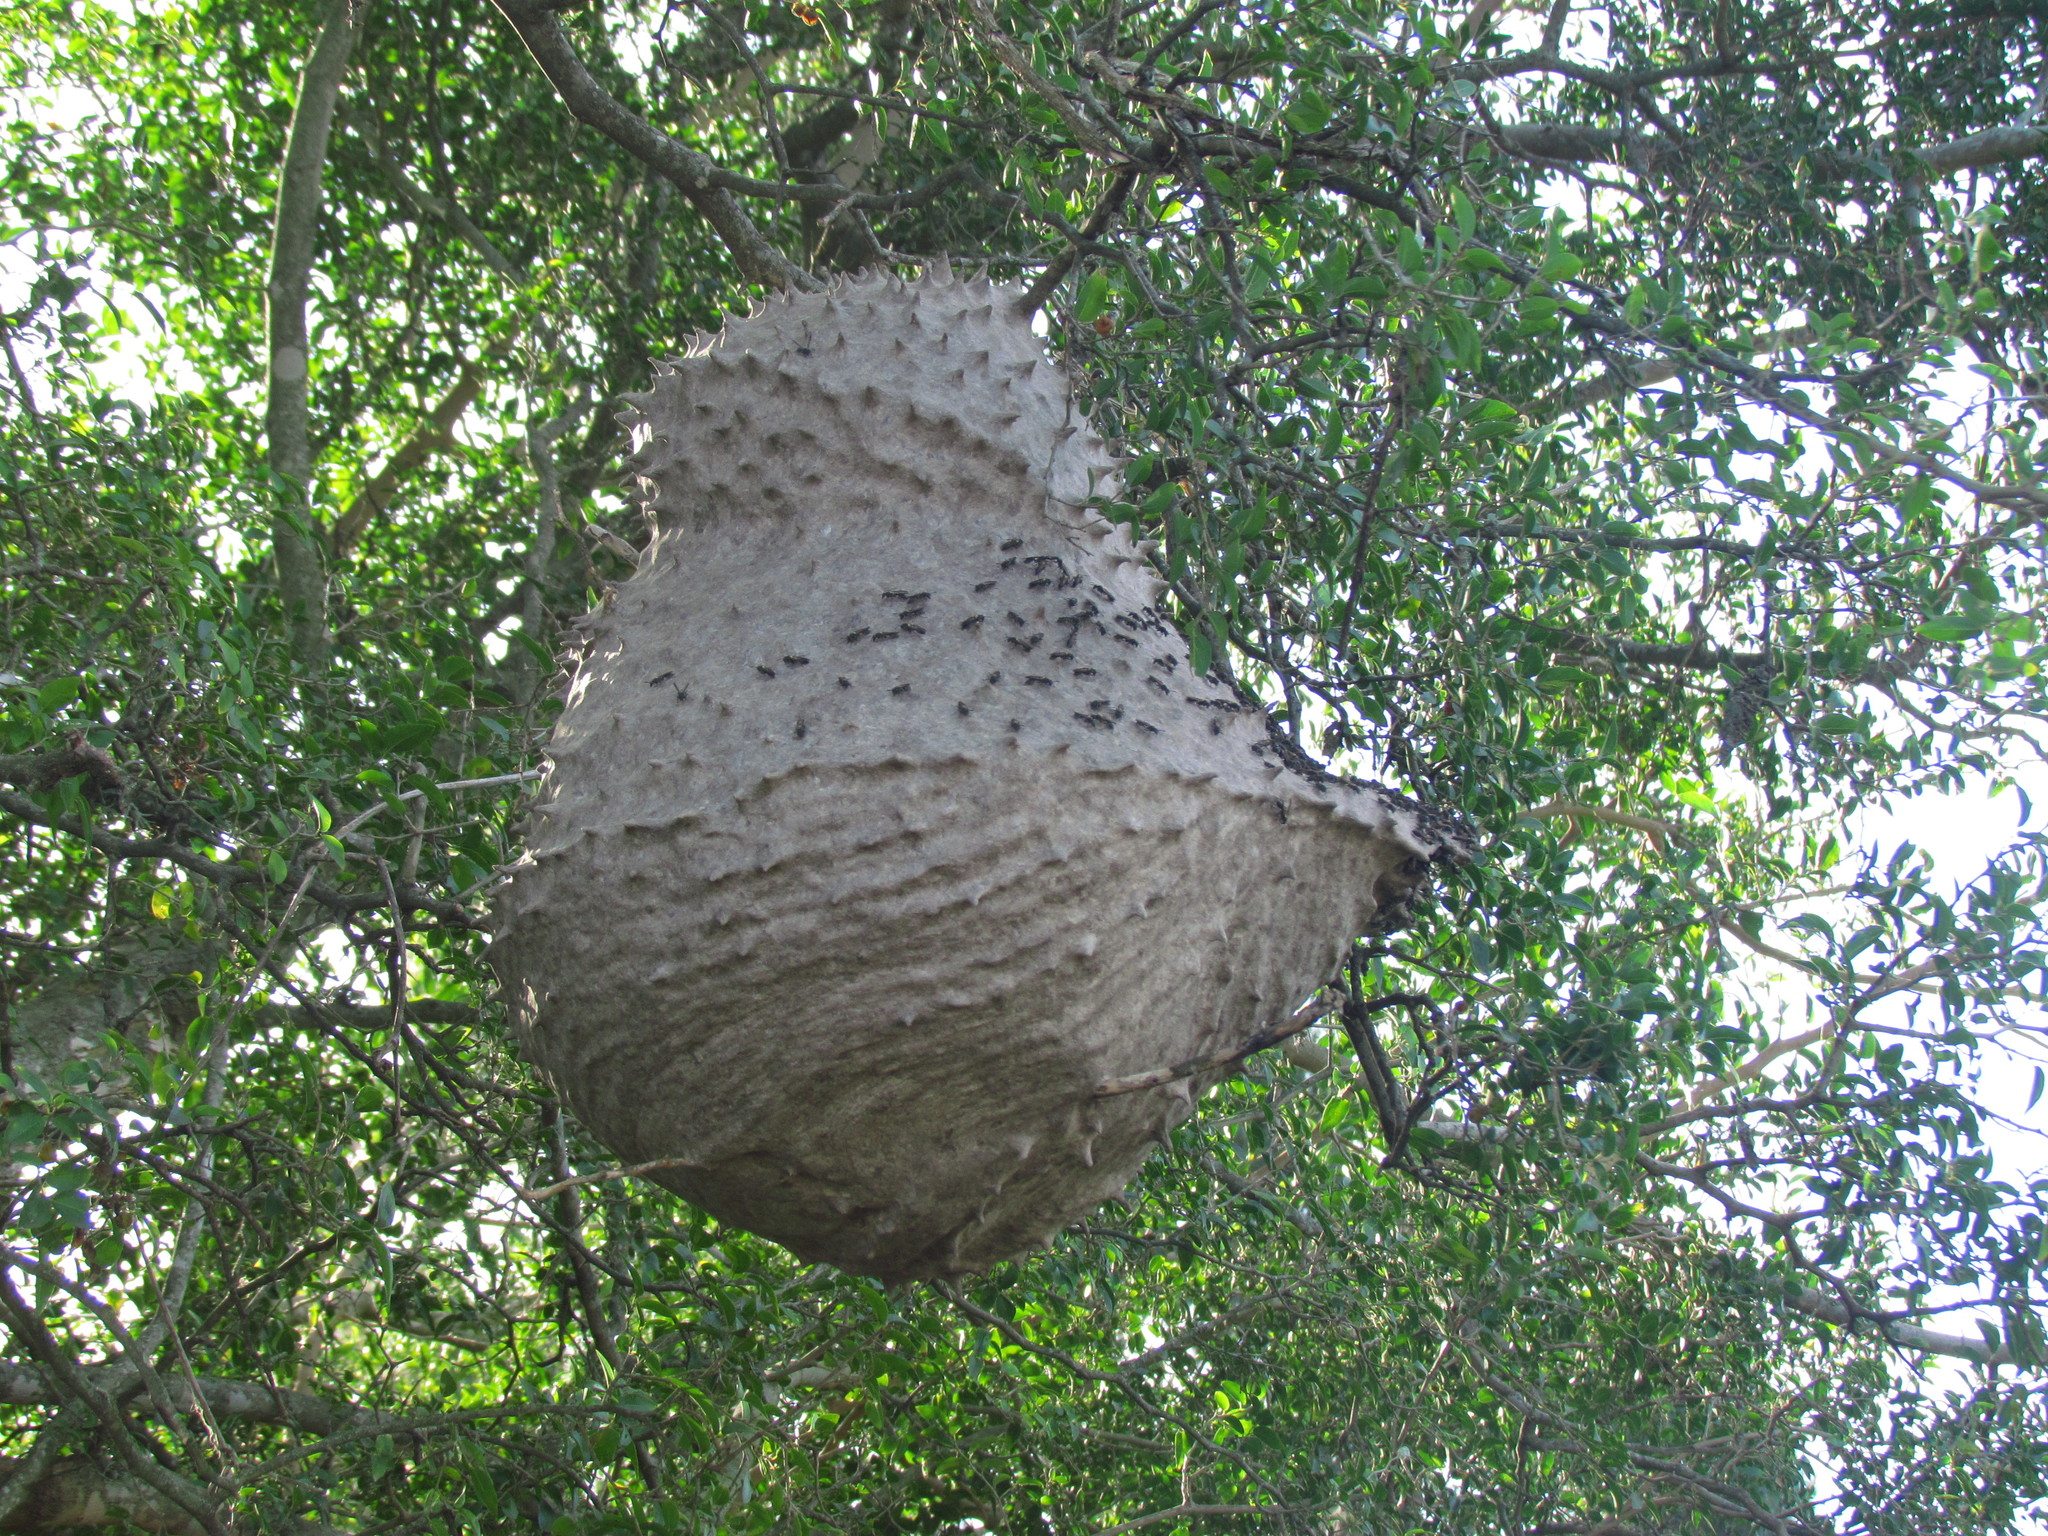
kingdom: Animalia
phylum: Arthropoda
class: Insecta
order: Hymenoptera
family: Eumenidae
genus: Polybia
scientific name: Polybia scutellaris
